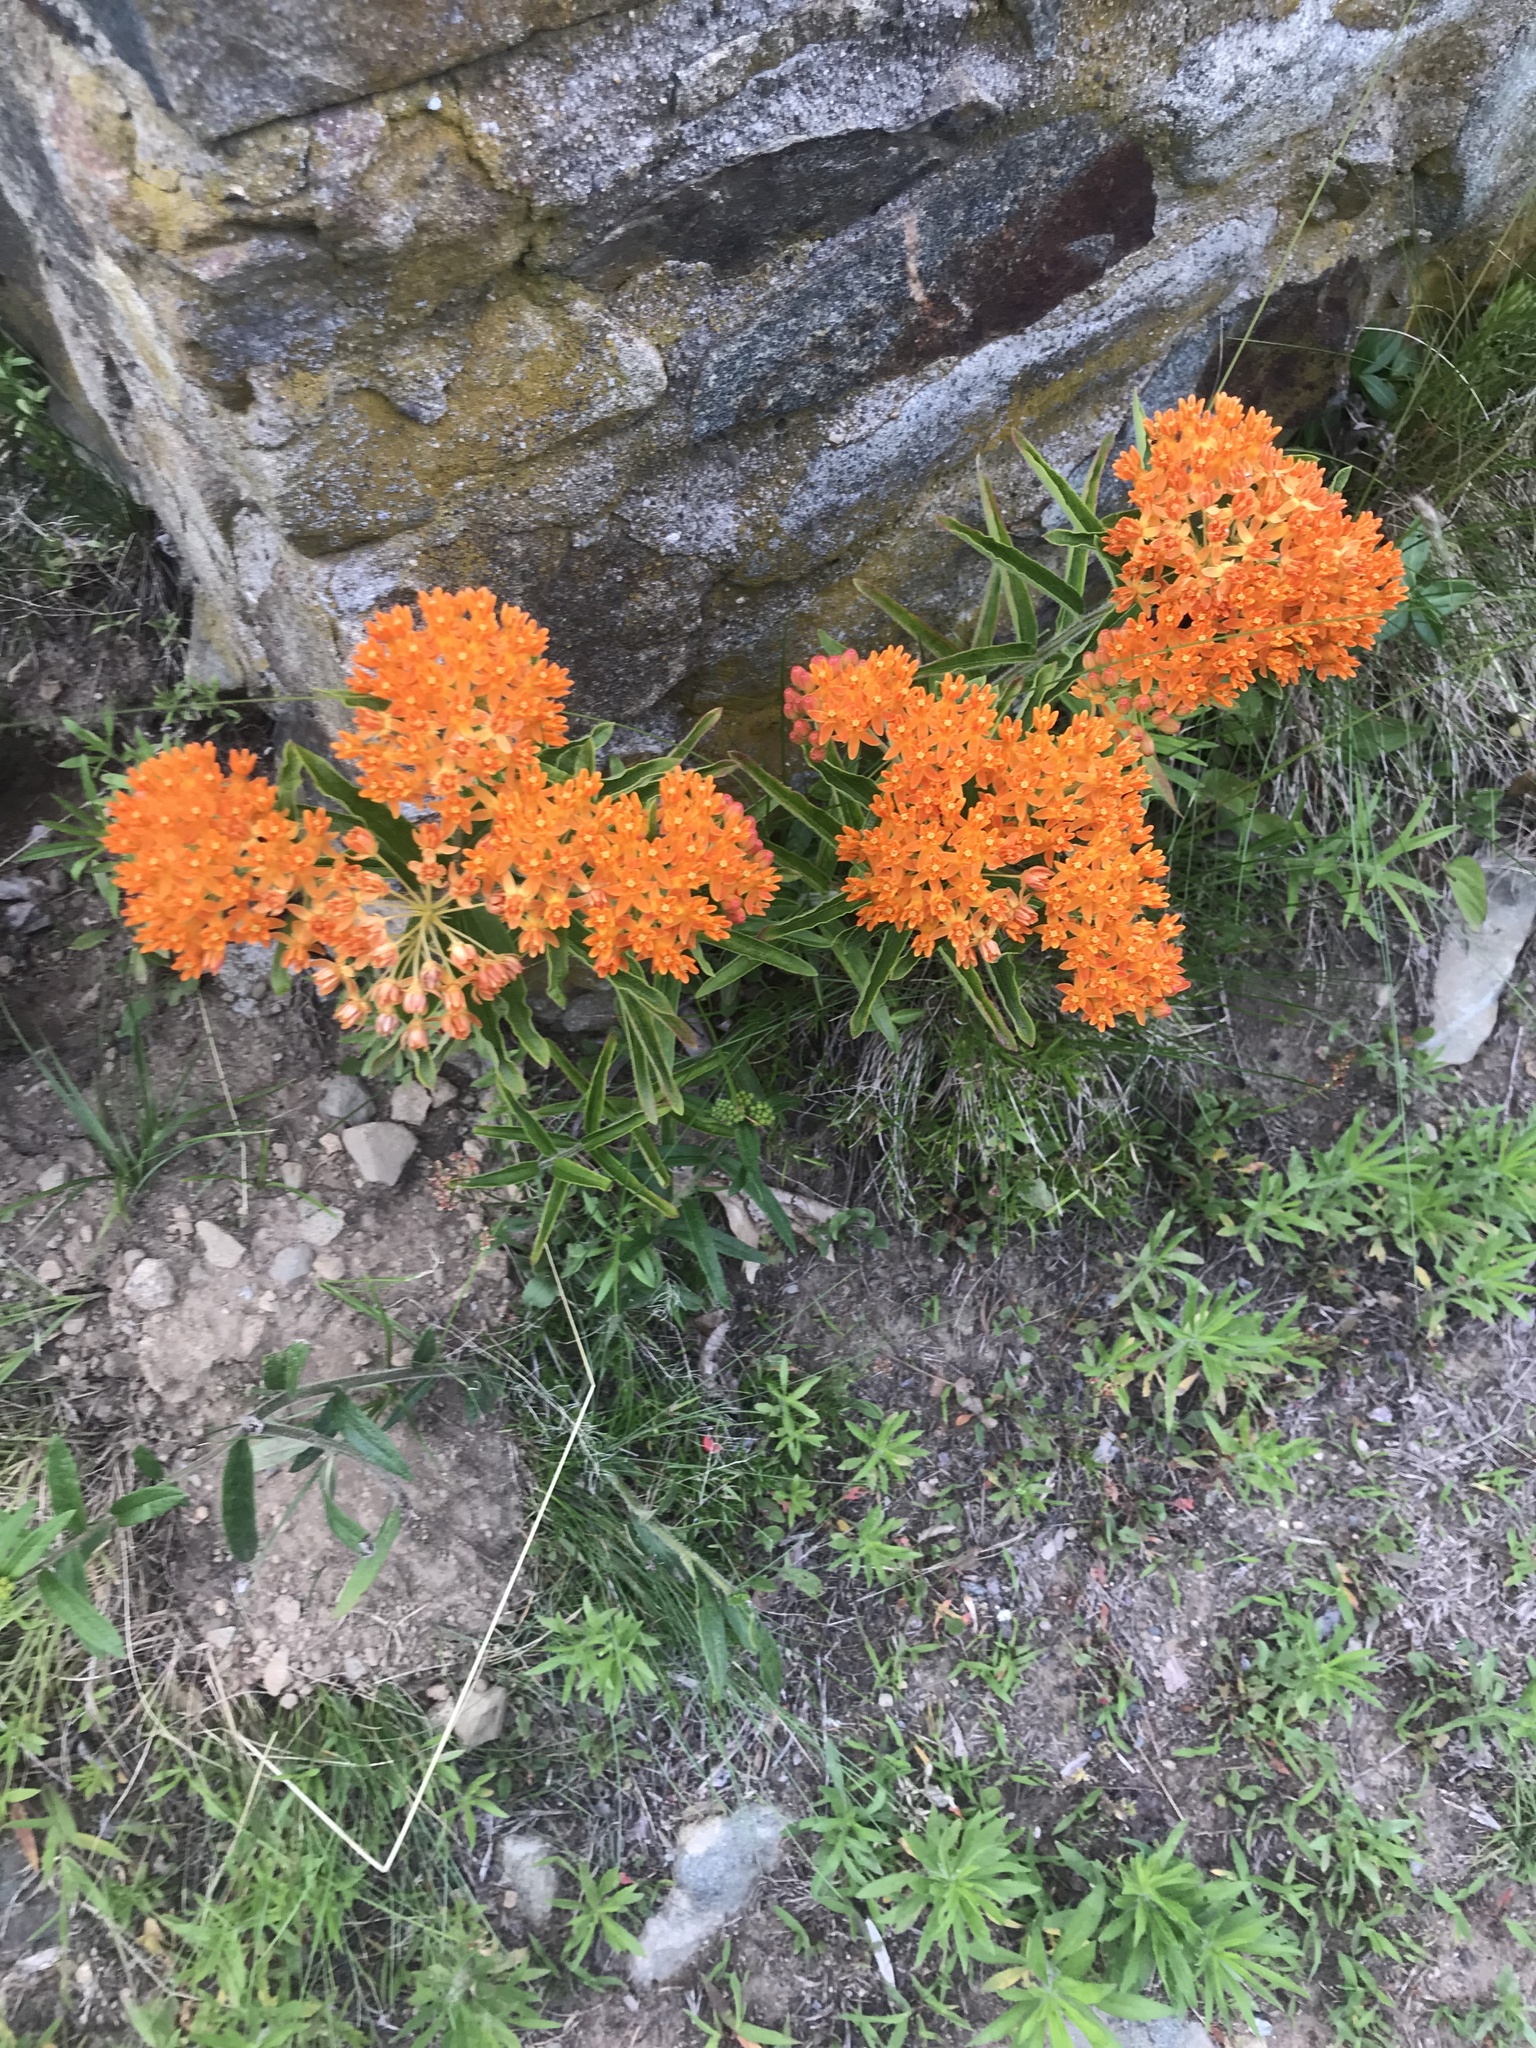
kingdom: Plantae
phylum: Tracheophyta
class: Magnoliopsida
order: Gentianales
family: Apocynaceae
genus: Asclepias
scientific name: Asclepias tuberosa
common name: Butterfly milkweed
